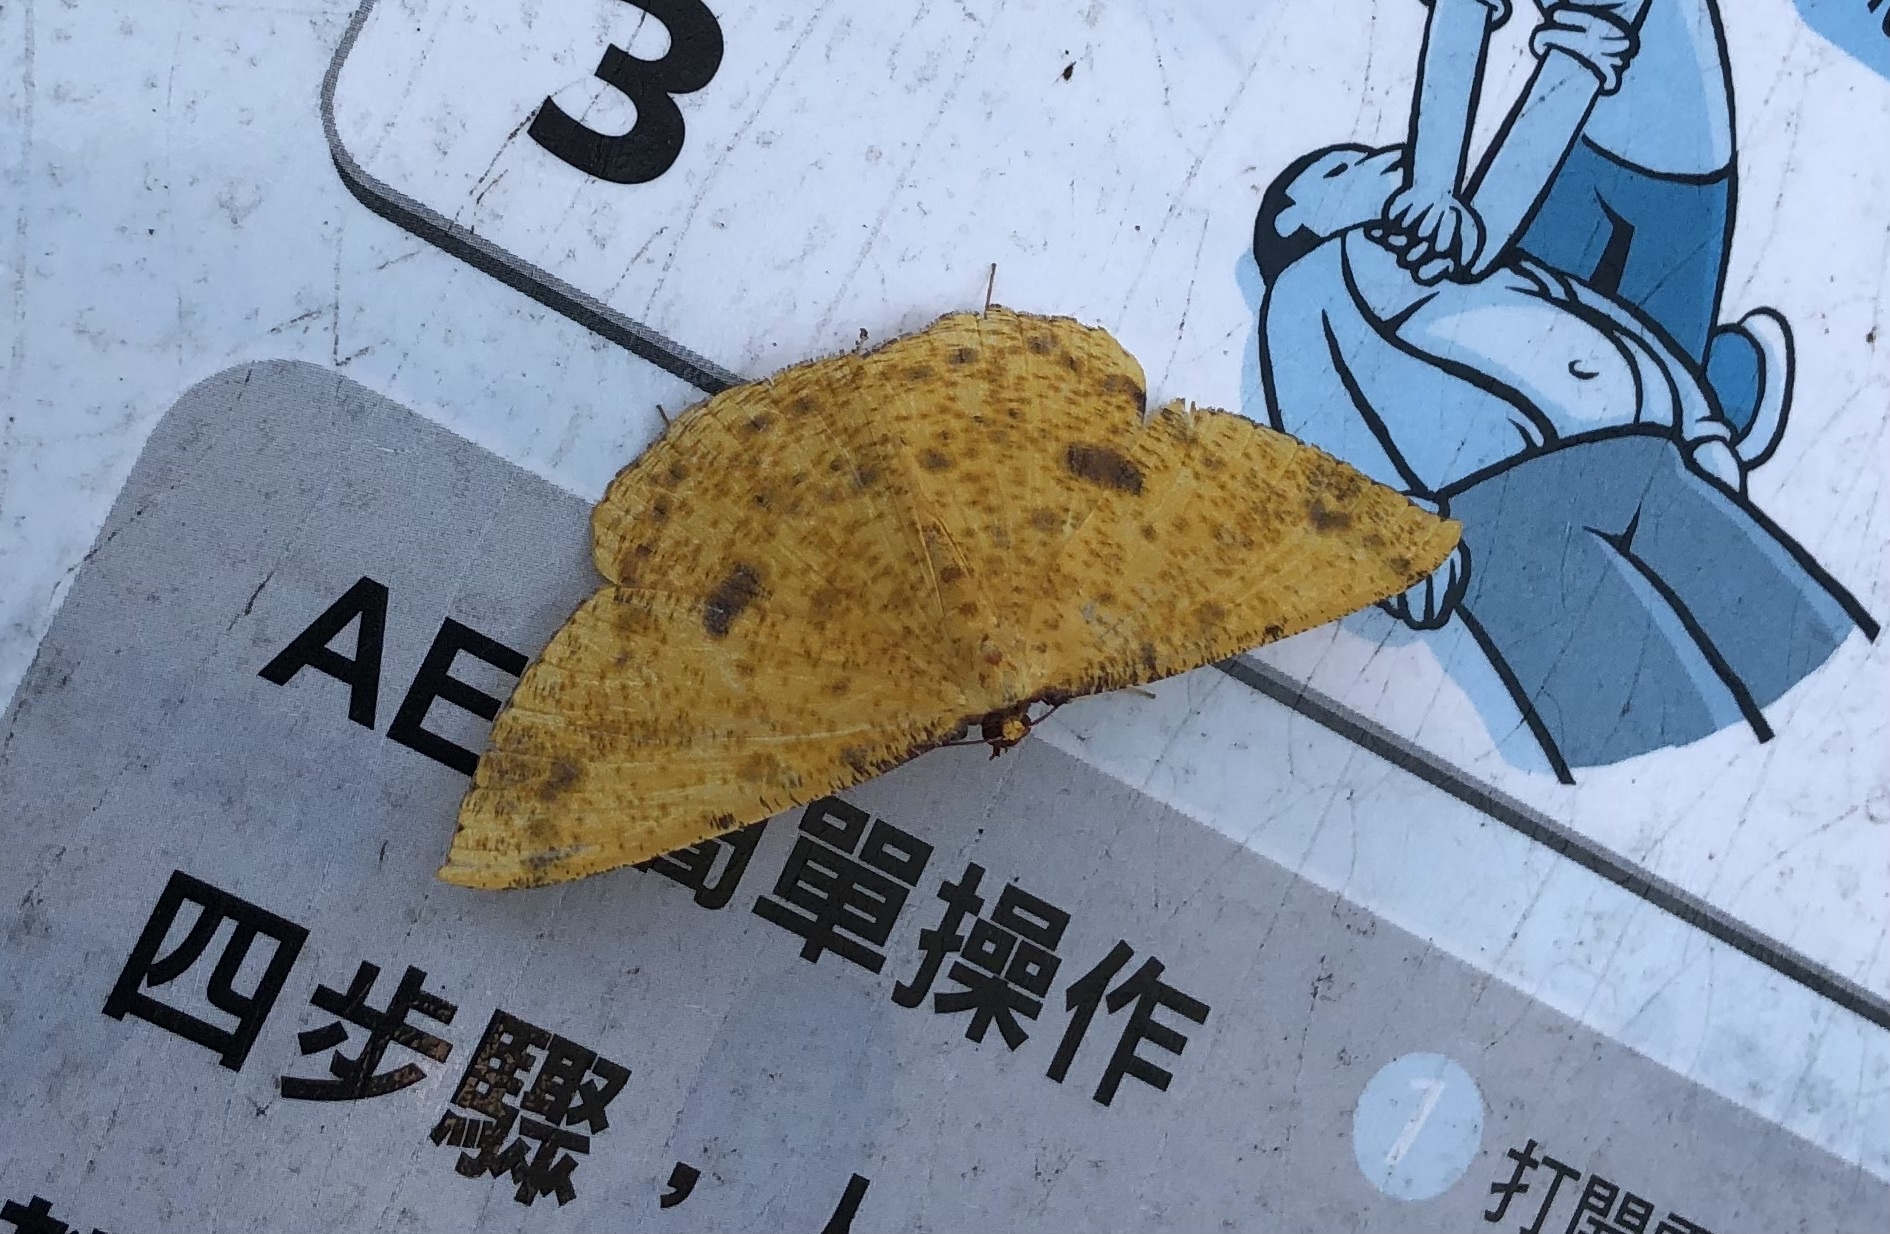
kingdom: Animalia
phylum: Arthropoda
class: Insecta
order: Lepidoptera
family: Geometridae
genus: Eumelea
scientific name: Eumelea ludovicata
